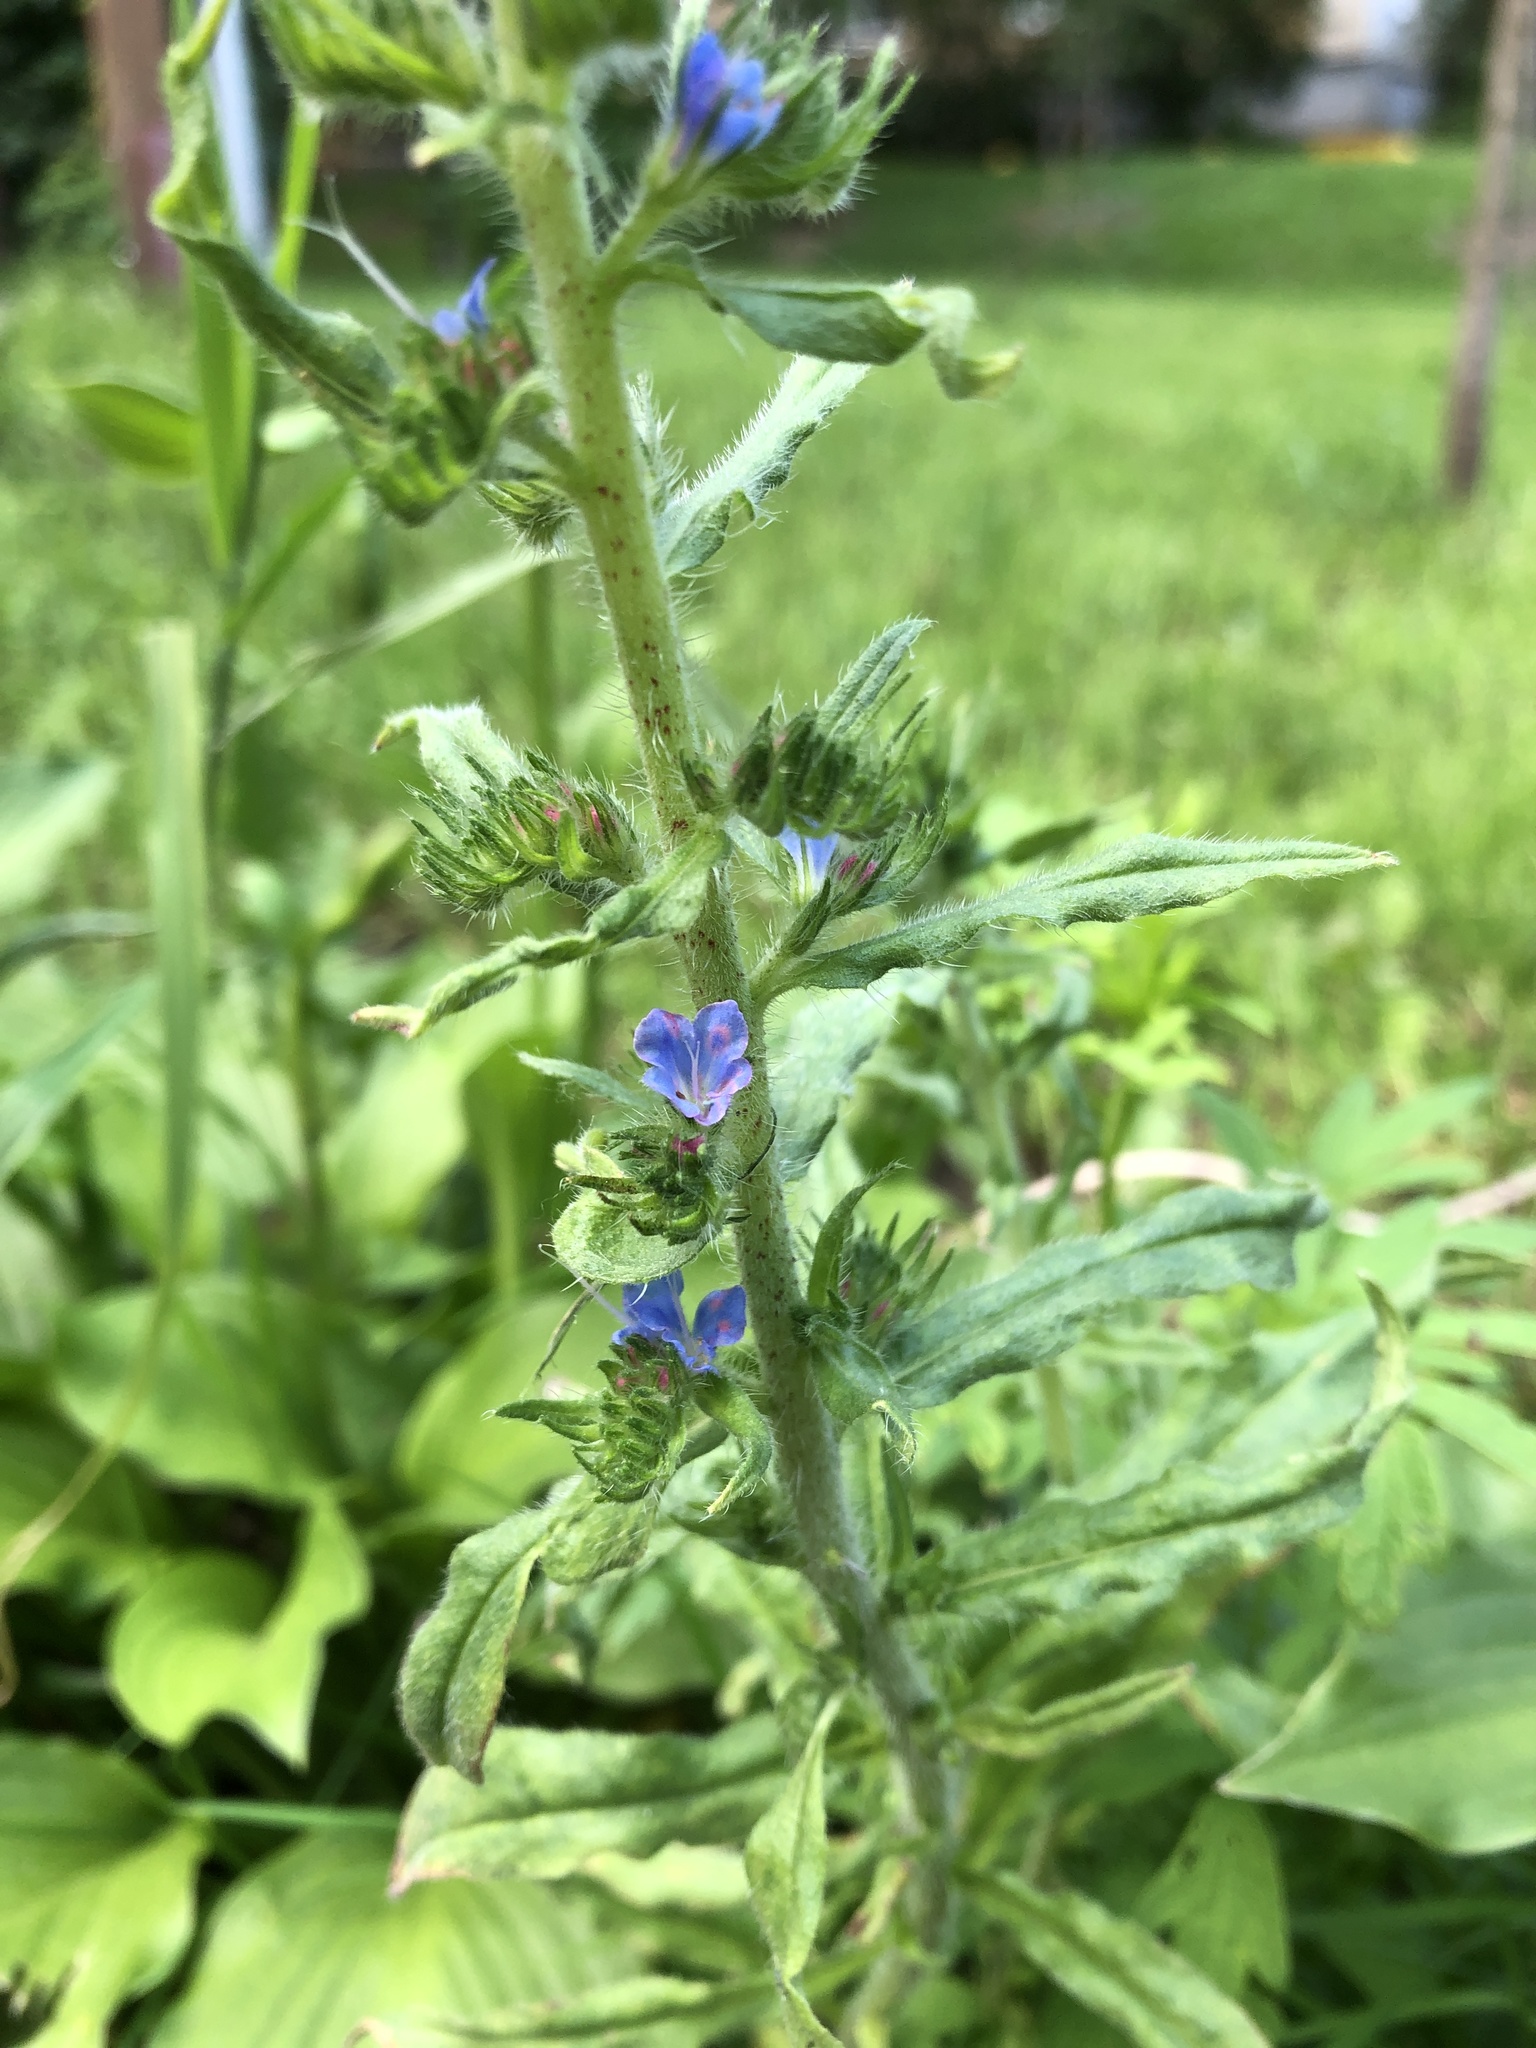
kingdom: Plantae
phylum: Tracheophyta
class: Magnoliopsida
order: Boraginales
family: Boraginaceae
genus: Echium
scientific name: Echium vulgare
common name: Common viper's bugloss
